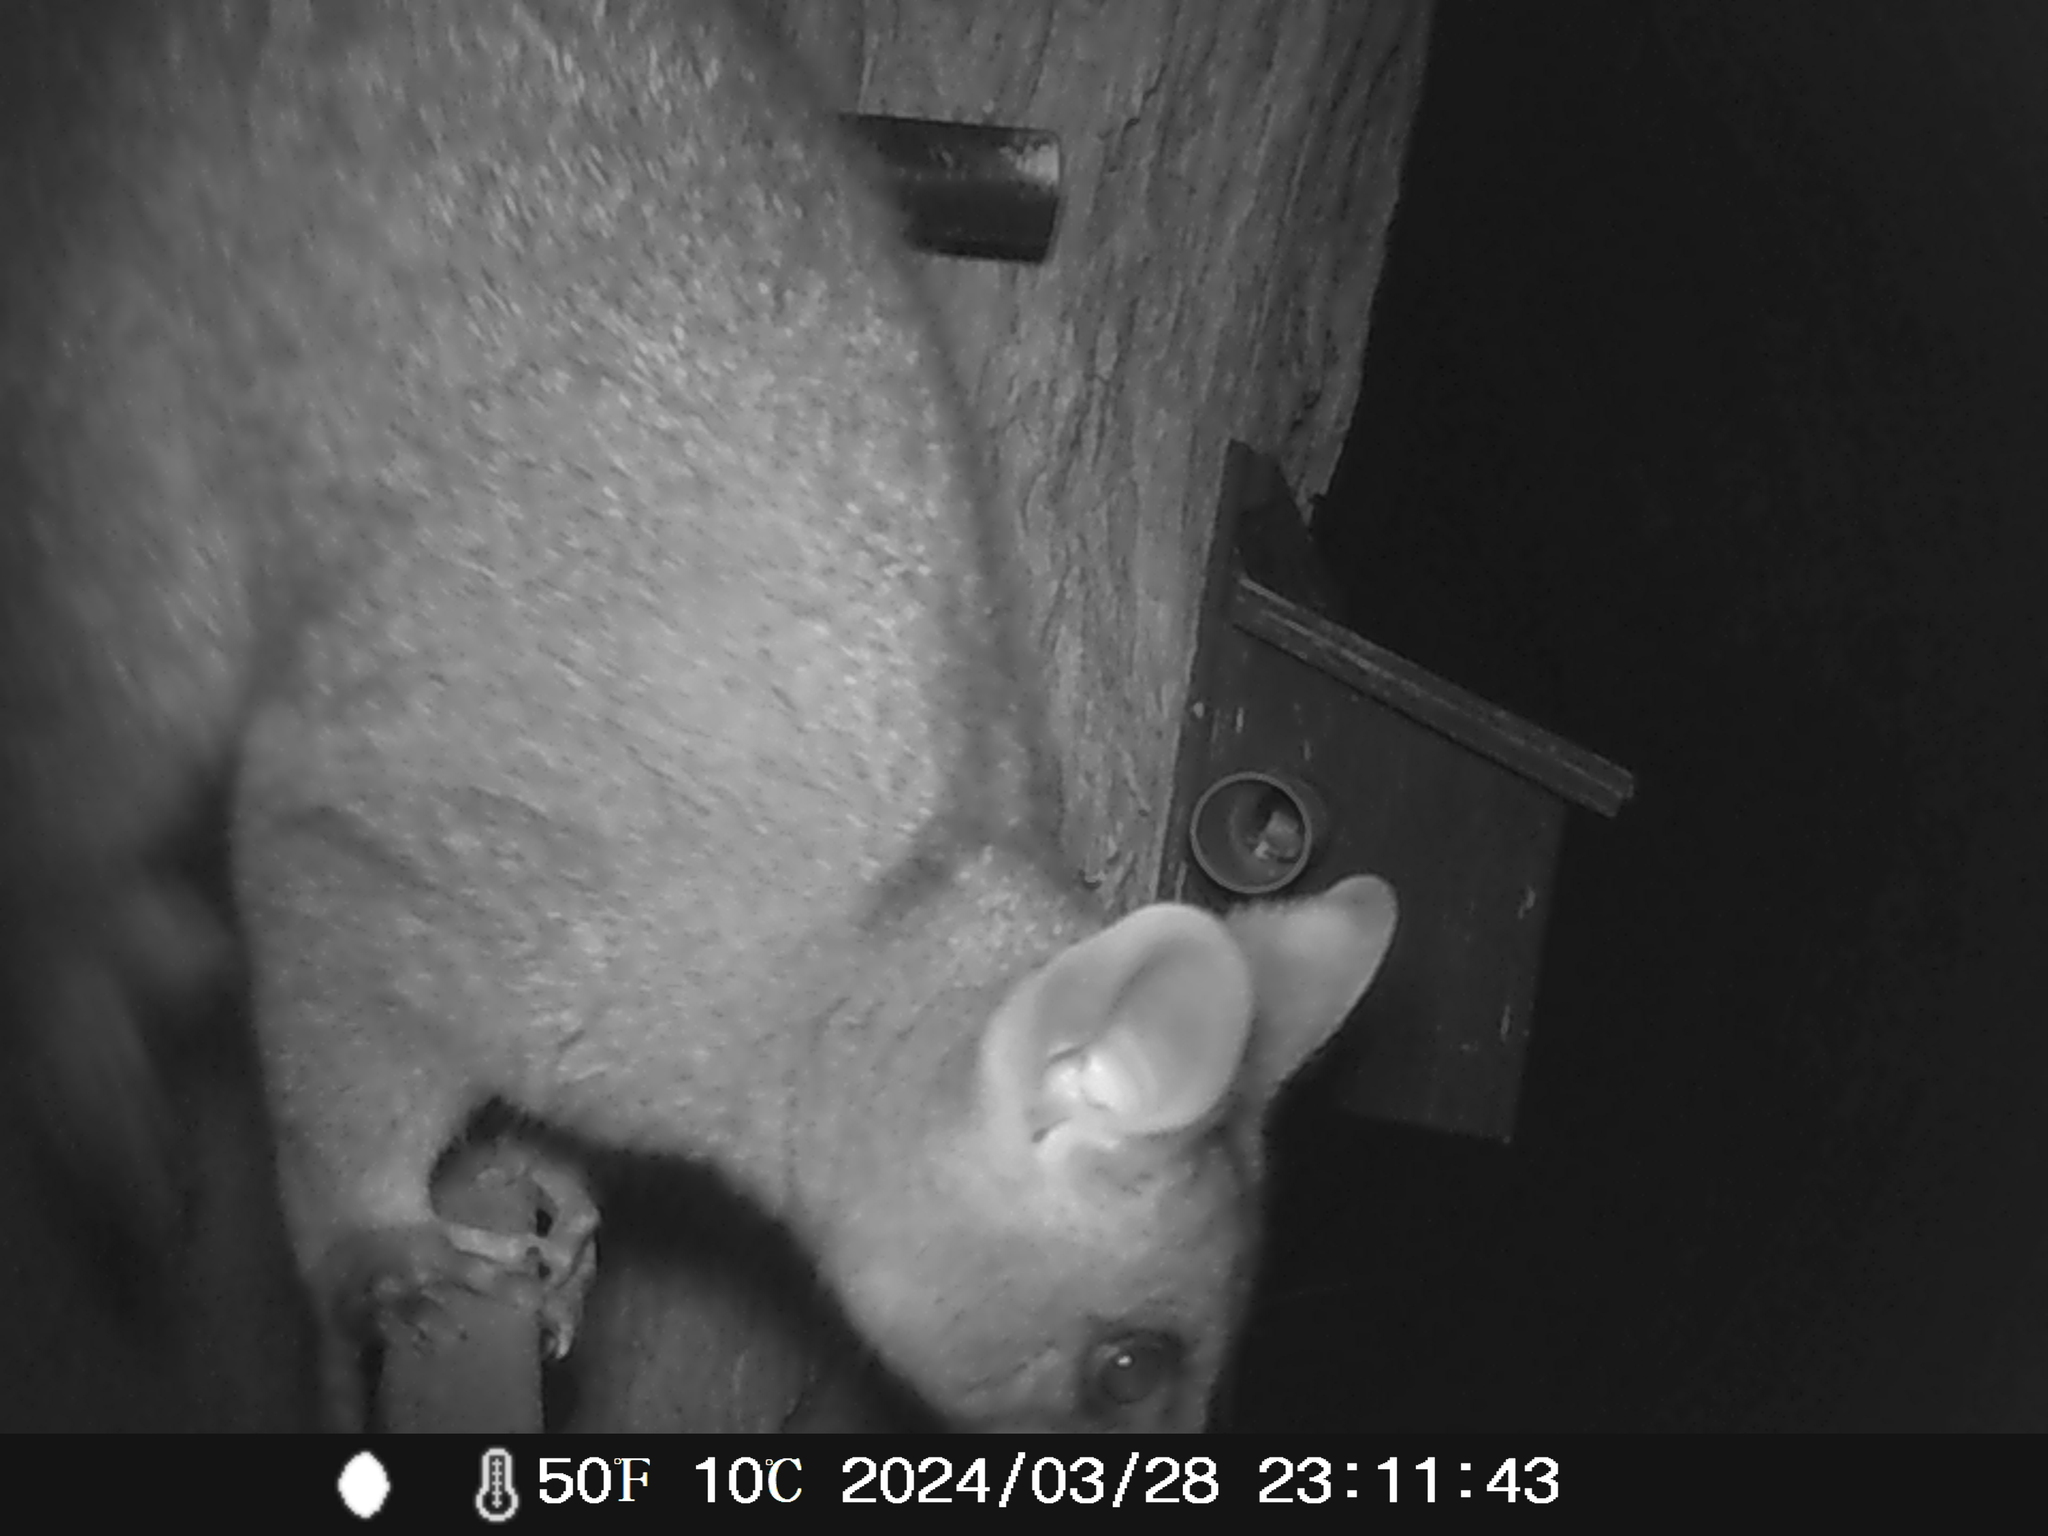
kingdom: Animalia
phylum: Chordata
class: Mammalia
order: Diprotodontia
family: Phalangeridae
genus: Trichosurus
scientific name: Trichosurus vulpecula
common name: Common brushtail
